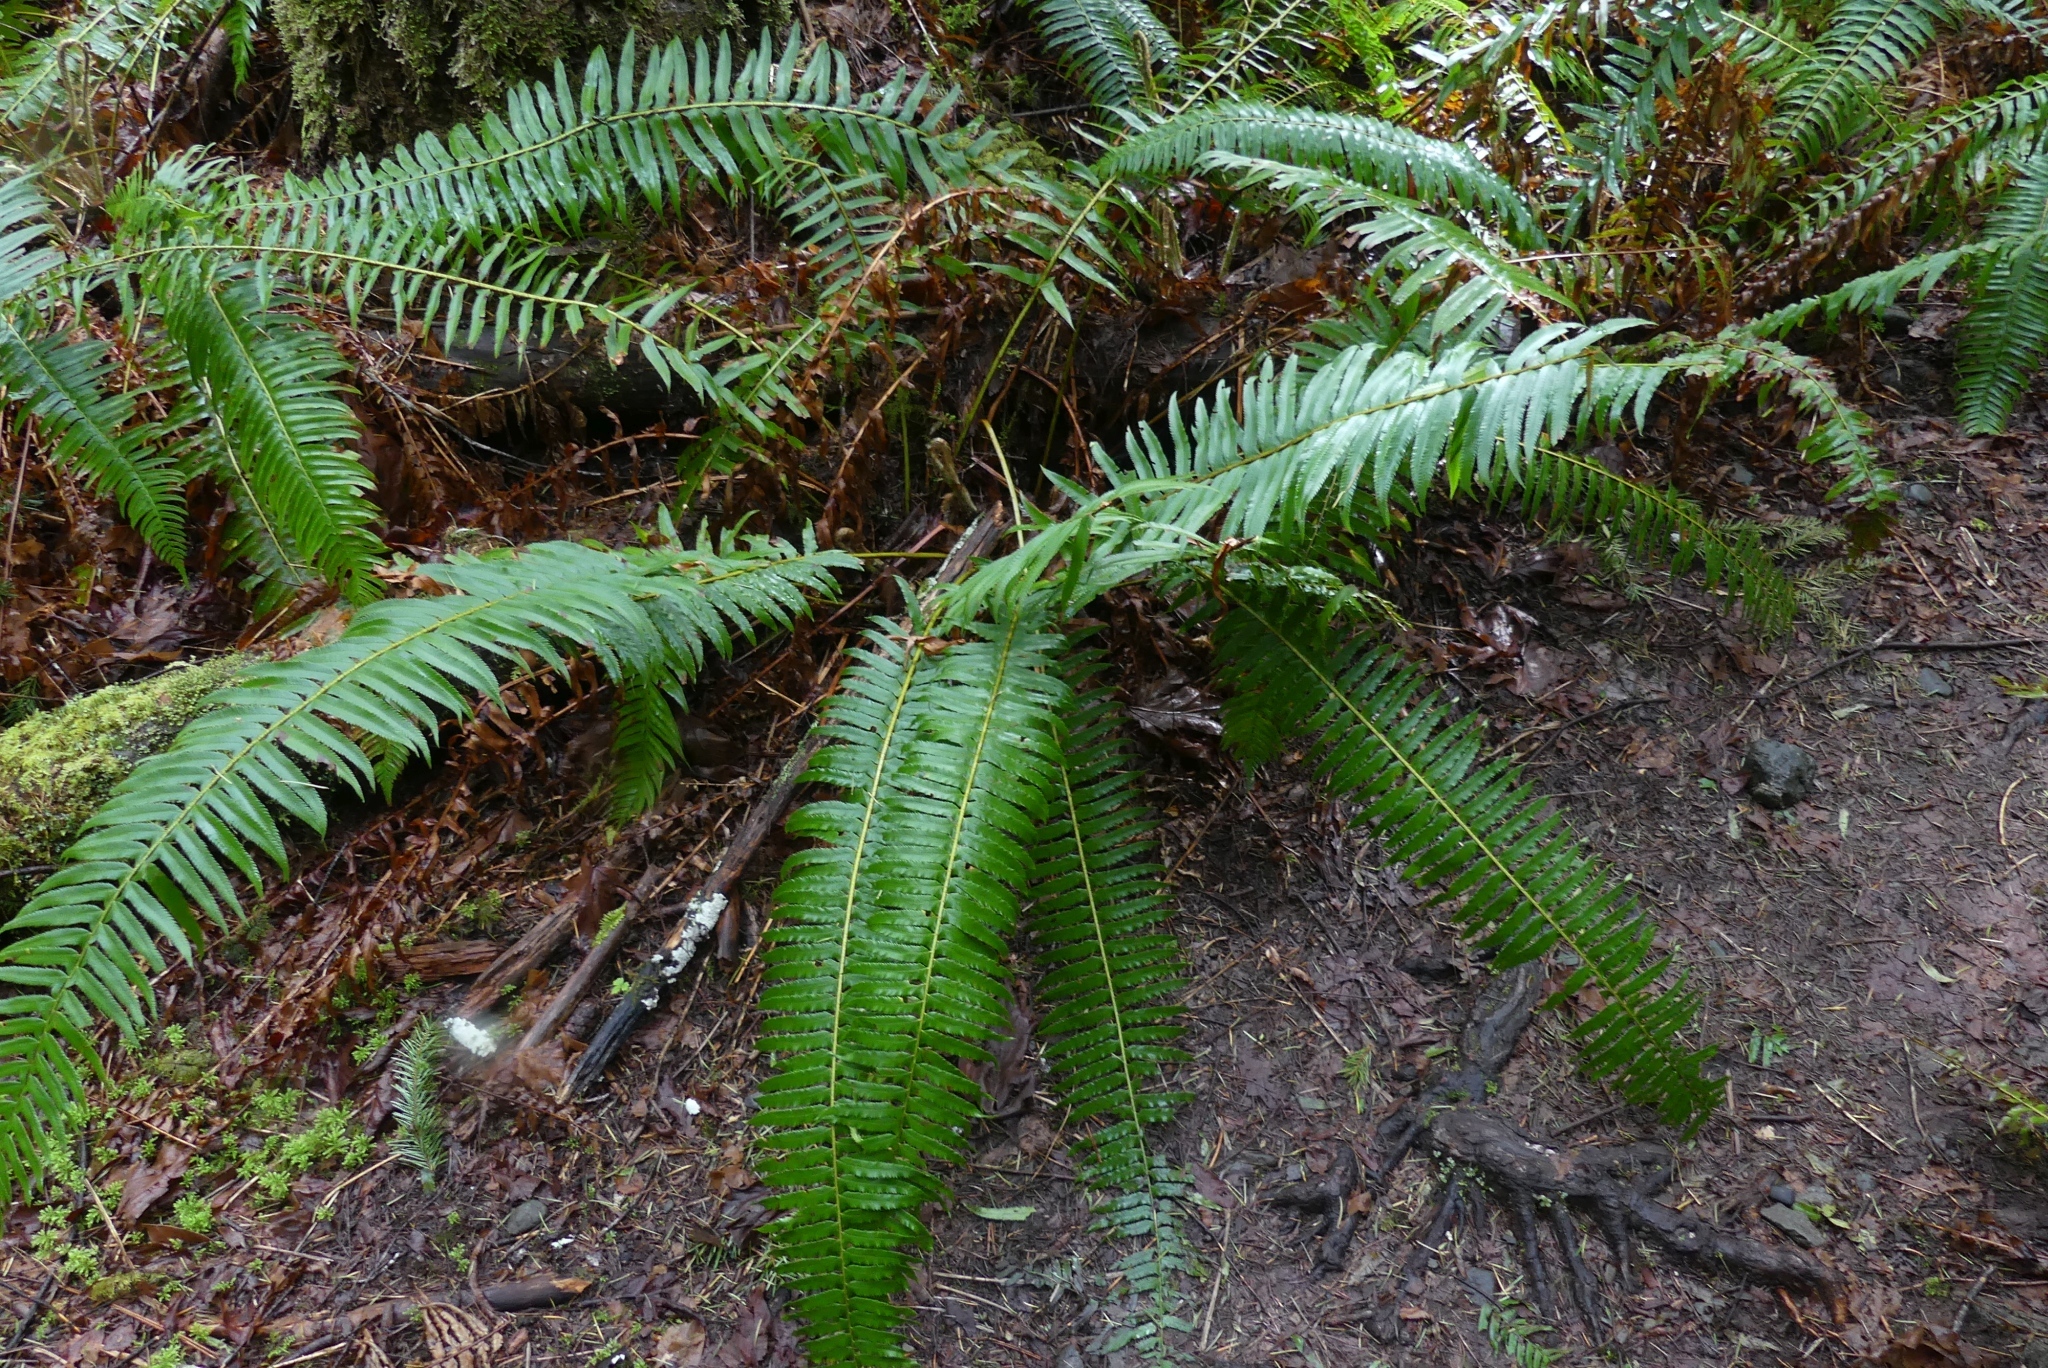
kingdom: Plantae
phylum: Tracheophyta
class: Polypodiopsida
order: Polypodiales
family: Dryopteridaceae
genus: Polystichum
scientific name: Polystichum munitum
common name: Western sword-fern
